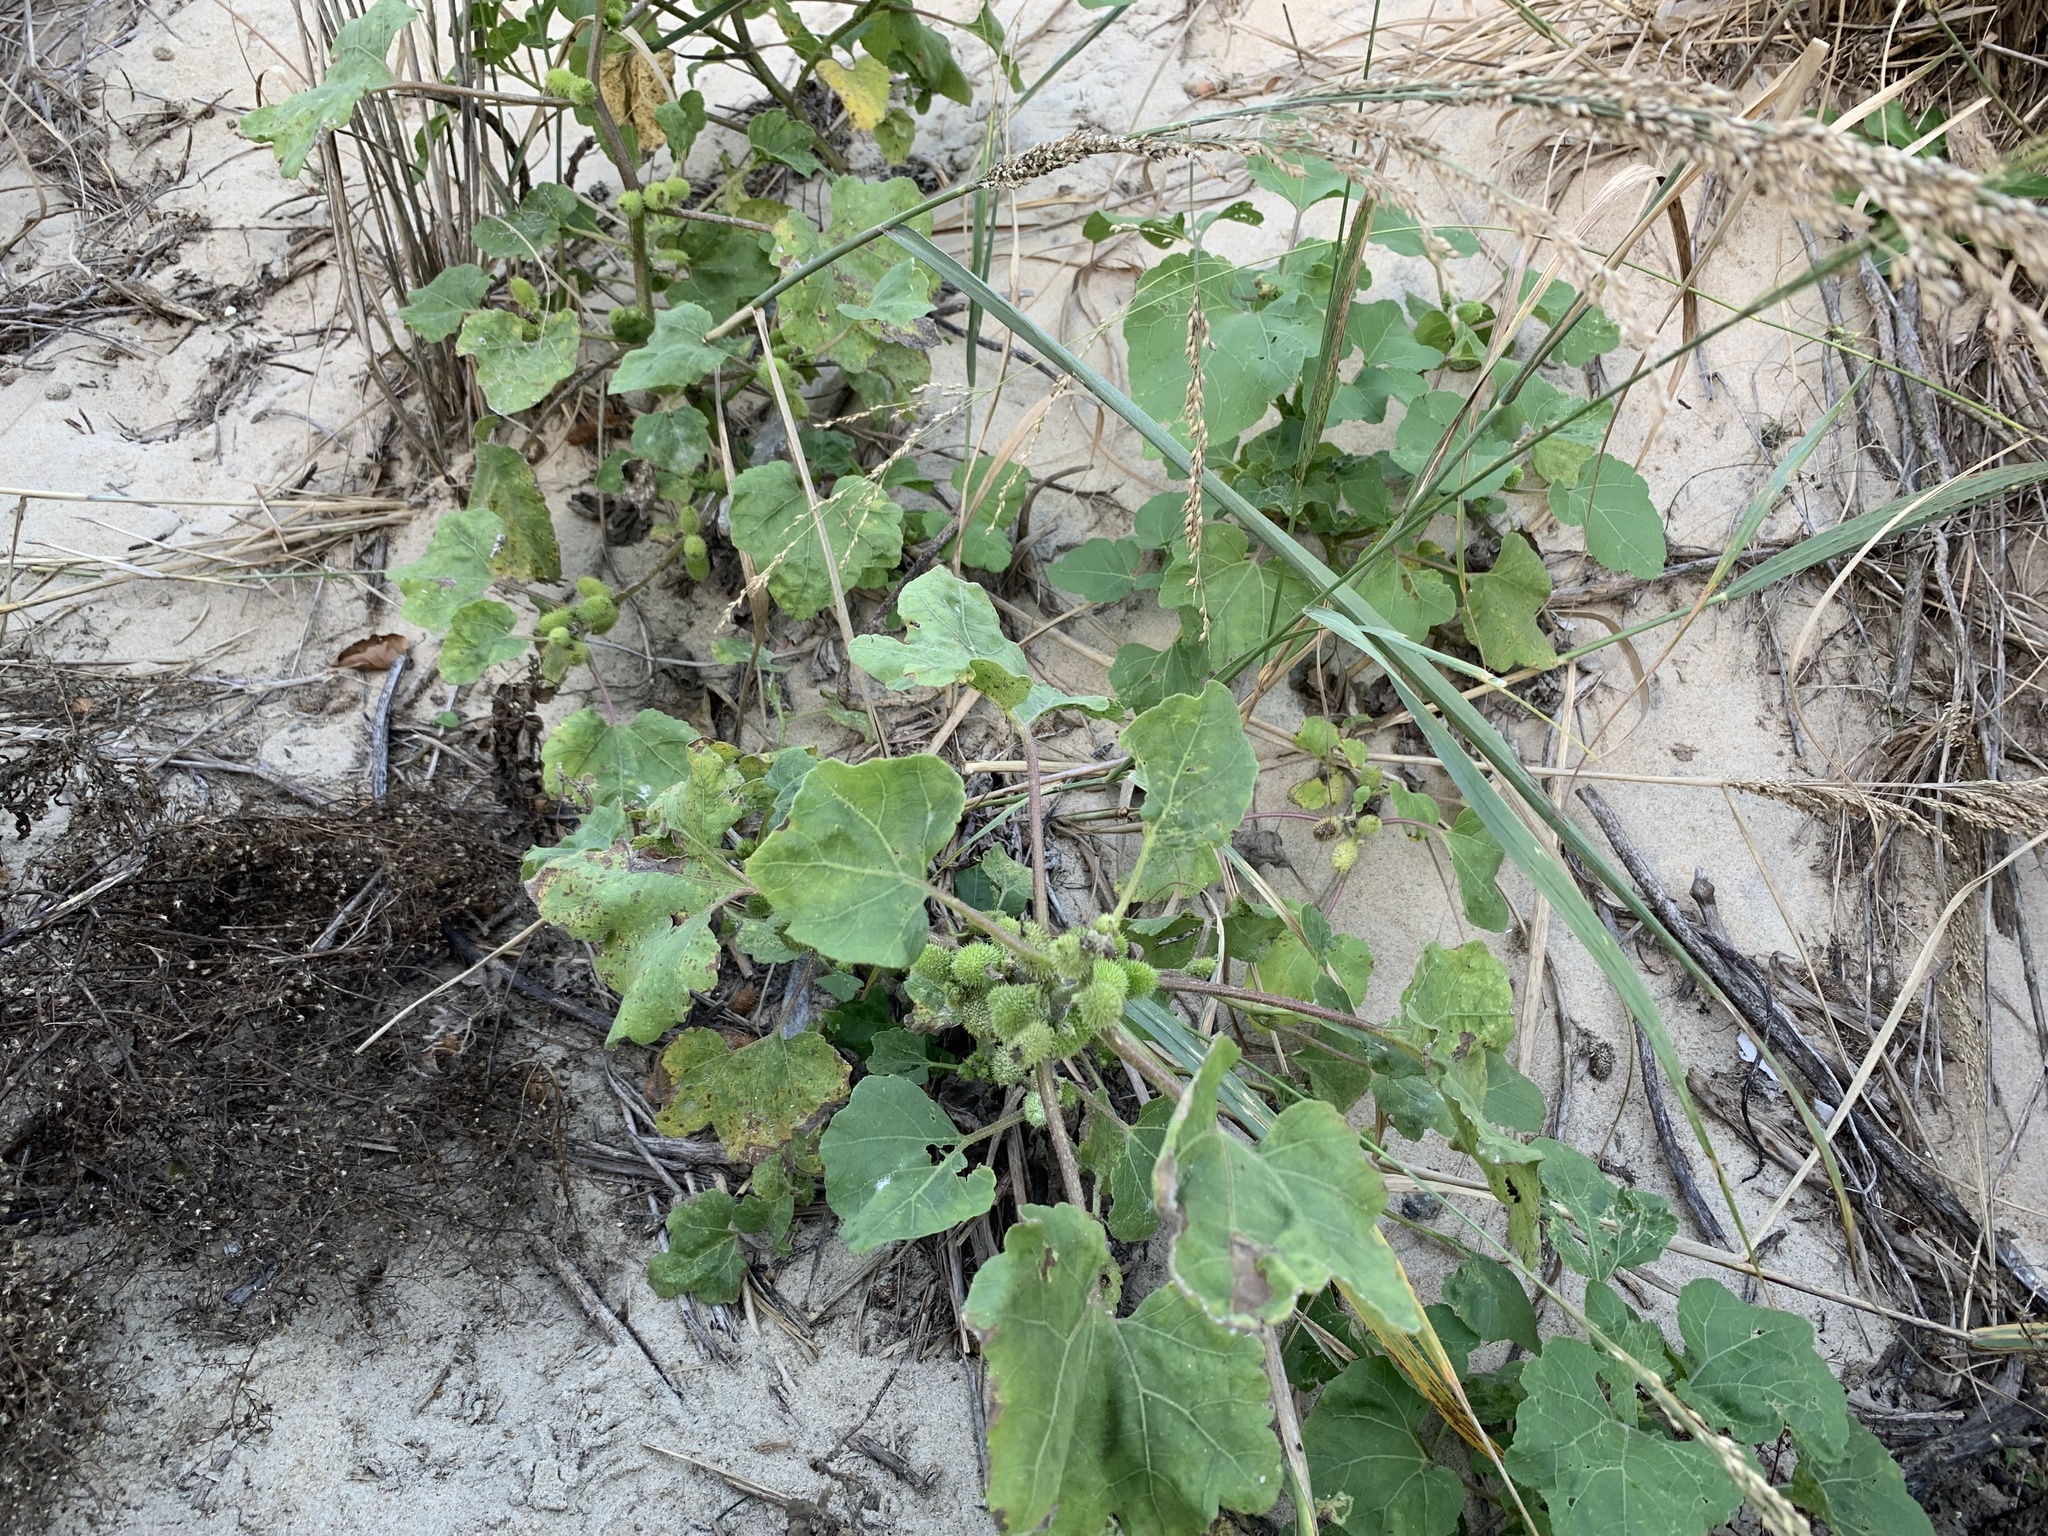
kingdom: Plantae
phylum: Tracheophyta
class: Magnoliopsida
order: Asterales
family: Asteraceae
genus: Xanthium
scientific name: Xanthium strumarium
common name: Rough cocklebur
